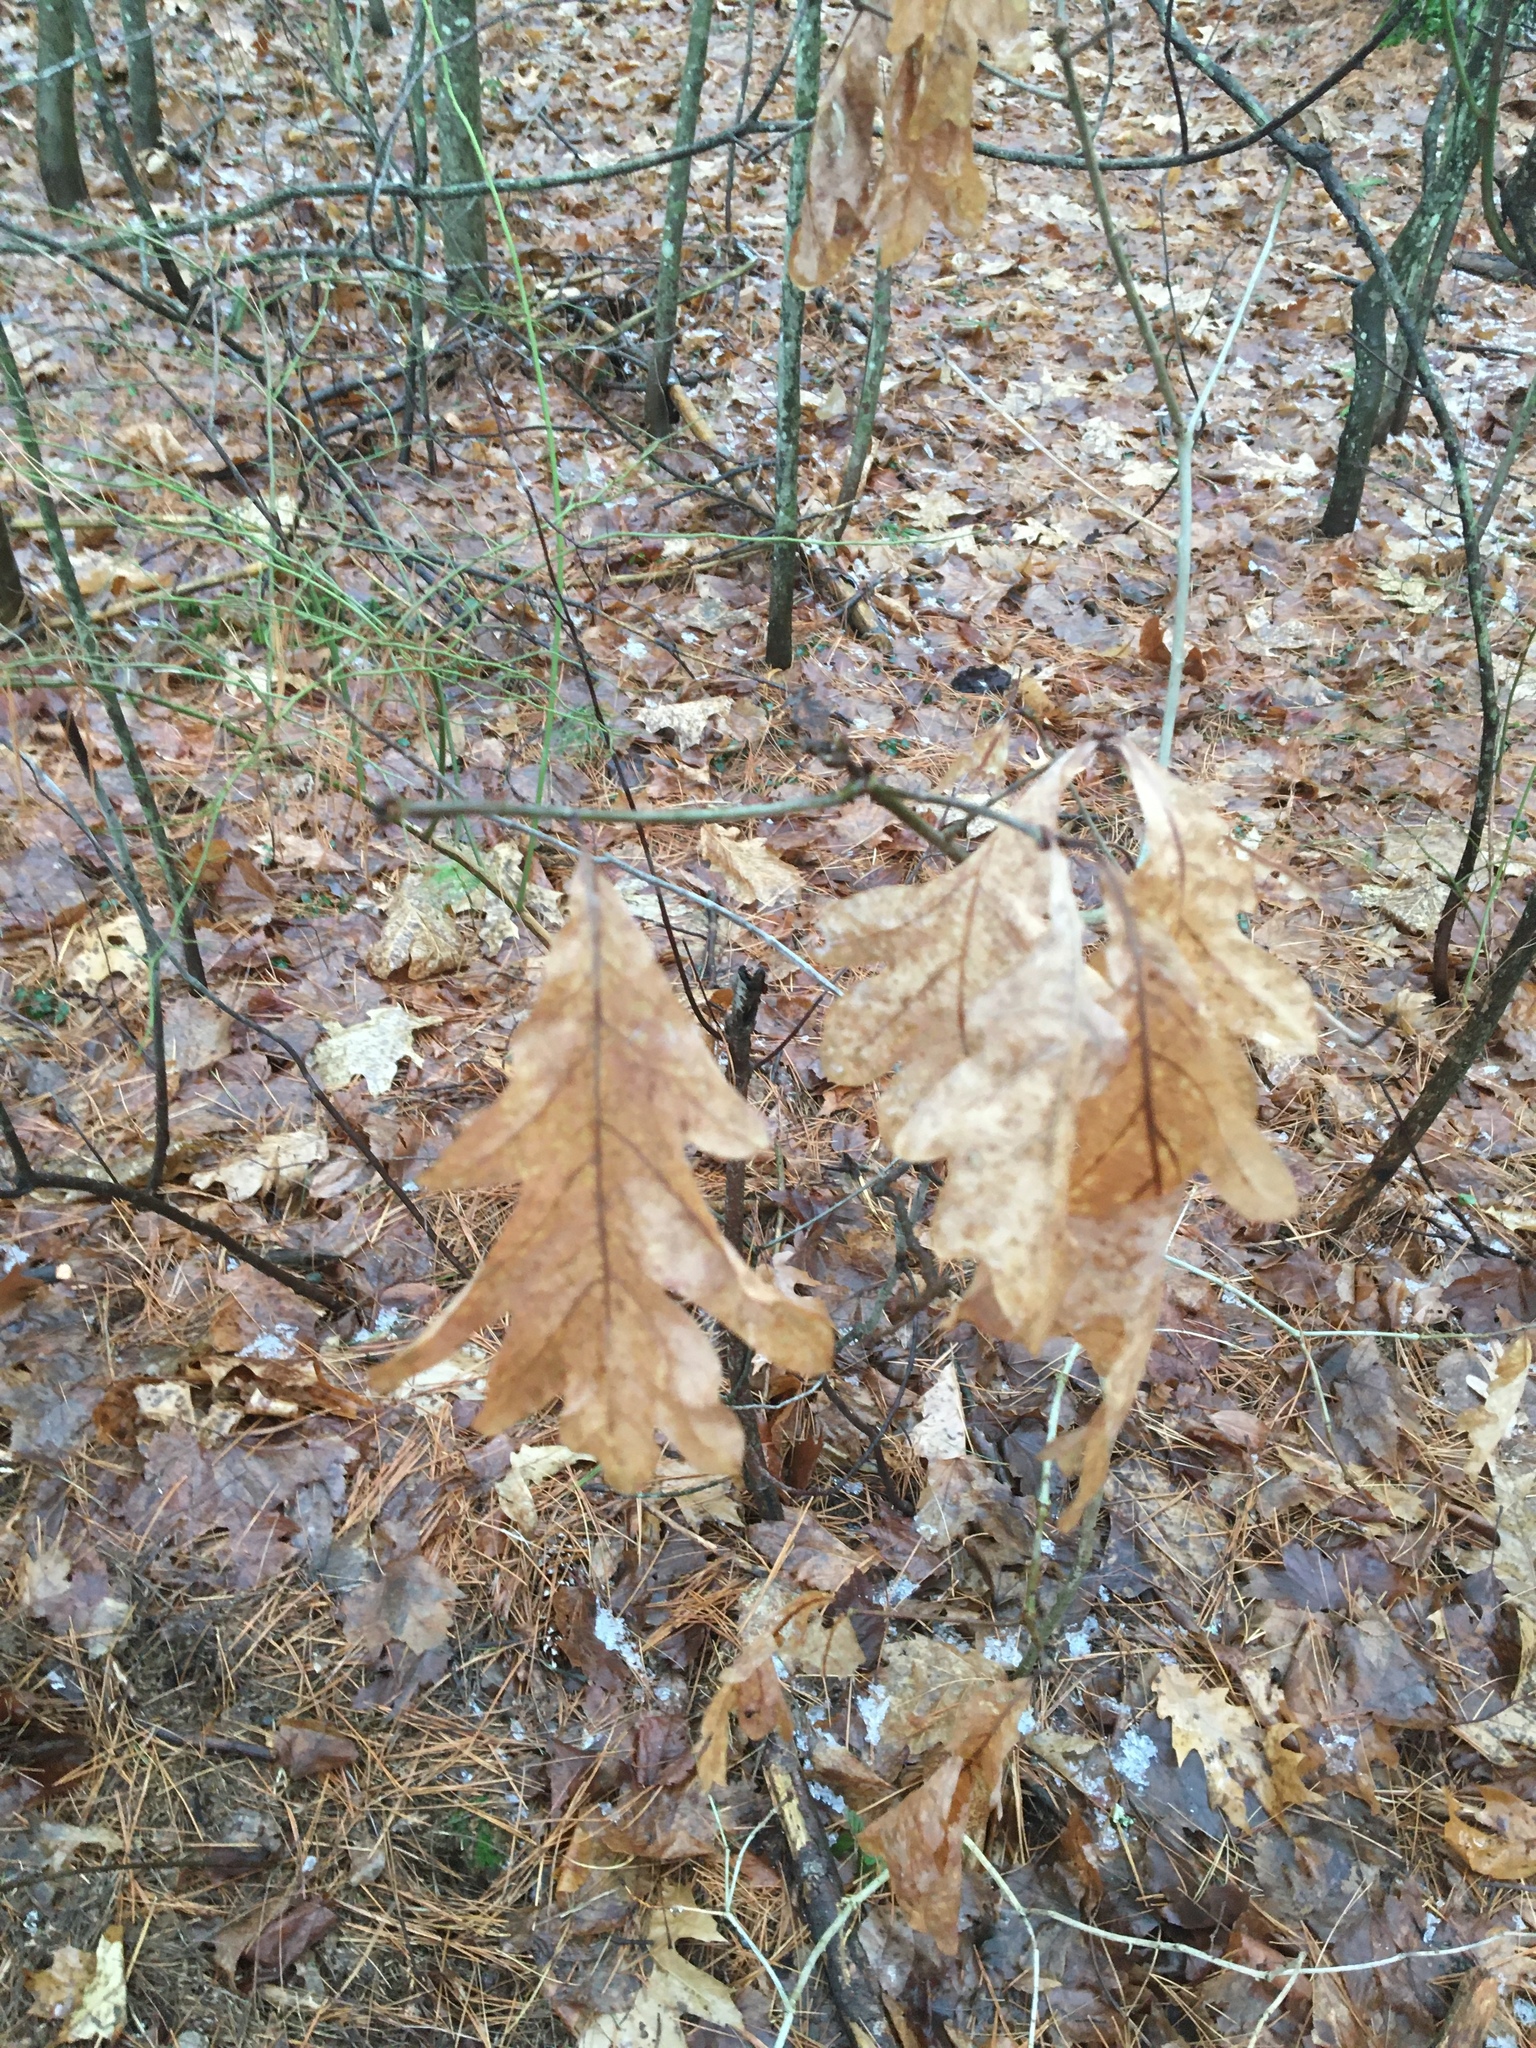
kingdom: Plantae
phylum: Tracheophyta
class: Magnoliopsida
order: Fagales
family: Fagaceae
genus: Quercus
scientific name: Quercus alba
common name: White oak
